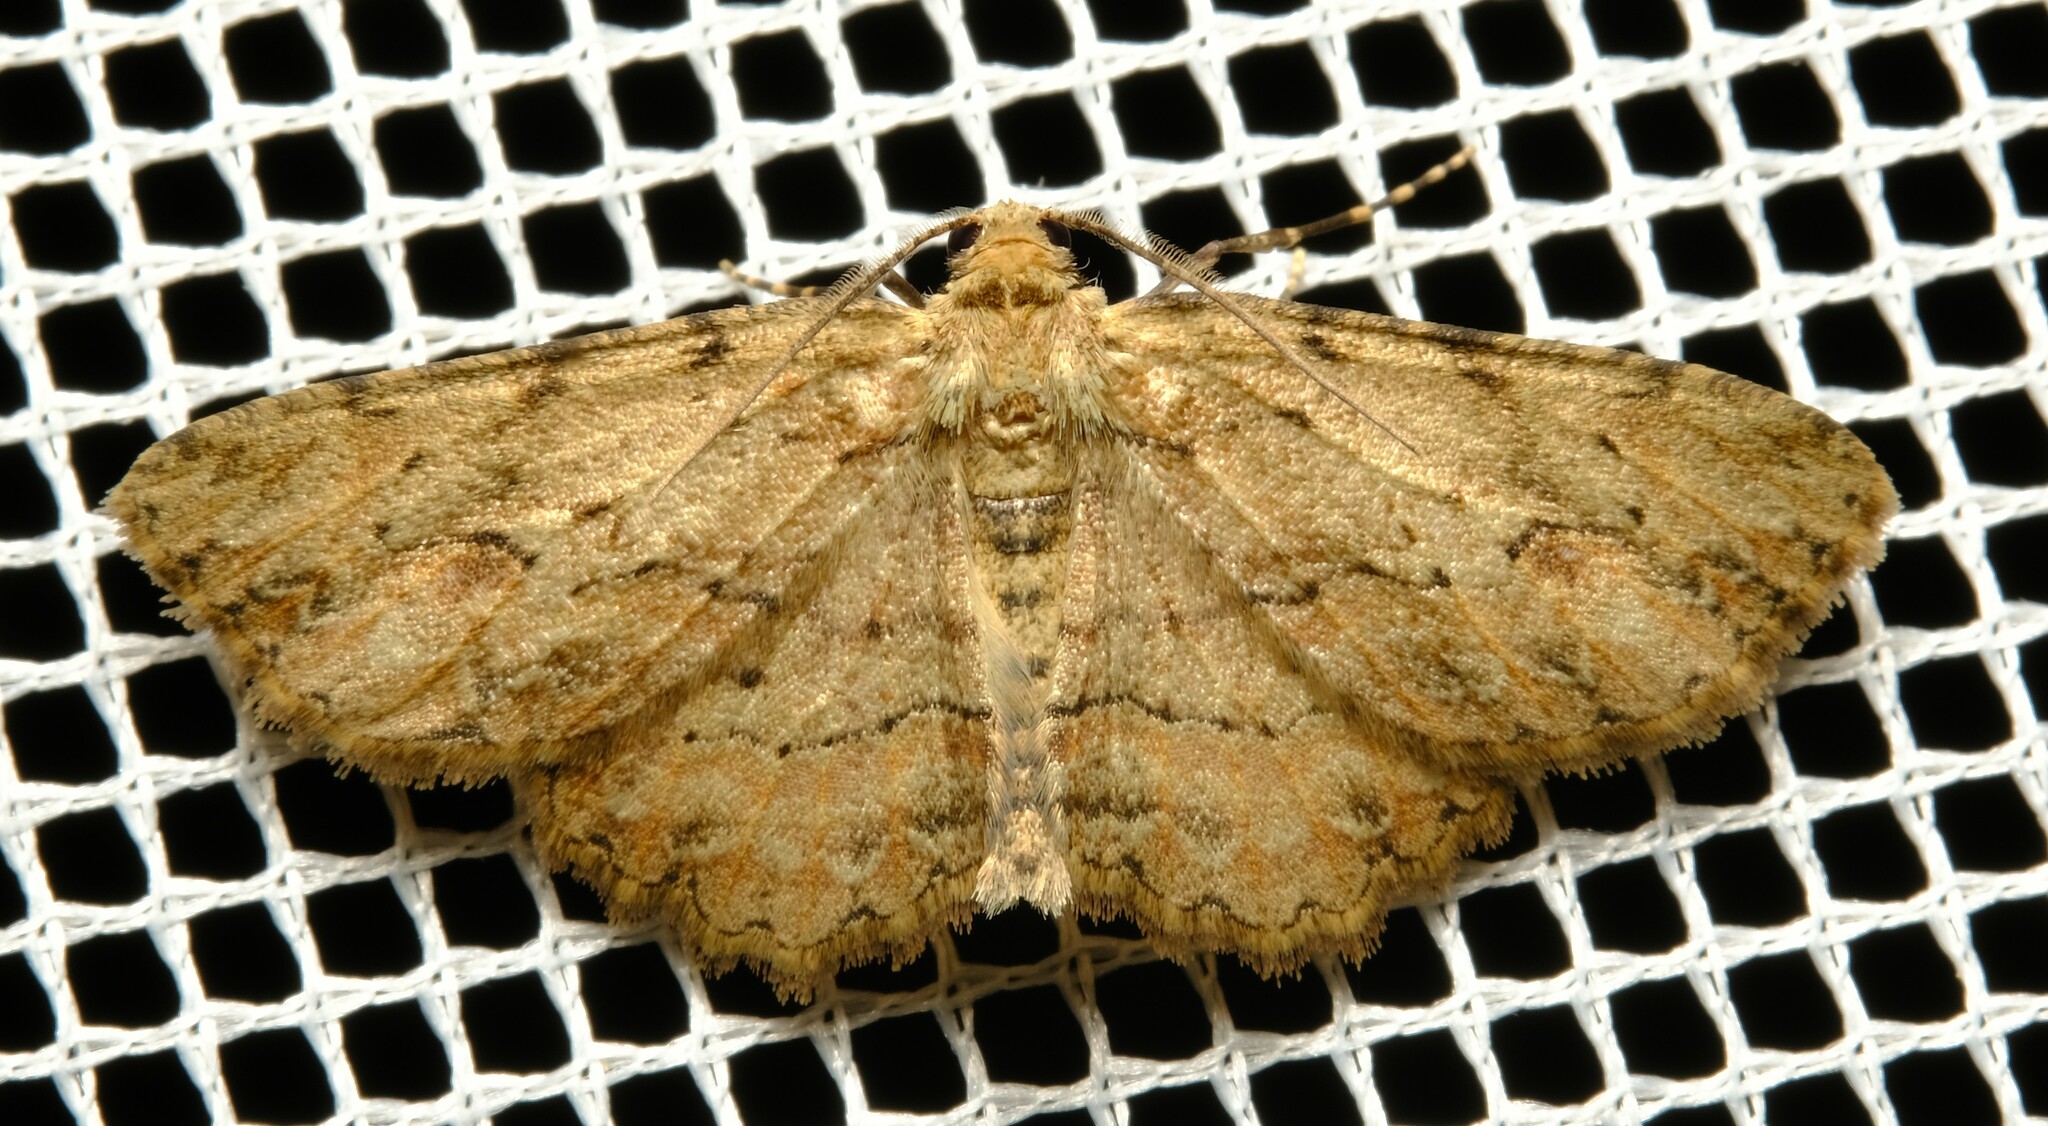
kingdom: Animalia
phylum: Arthropoda
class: Insecta
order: Lepidoptera
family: Geometridae
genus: Ectropis
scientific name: Ectropis bispinaria
